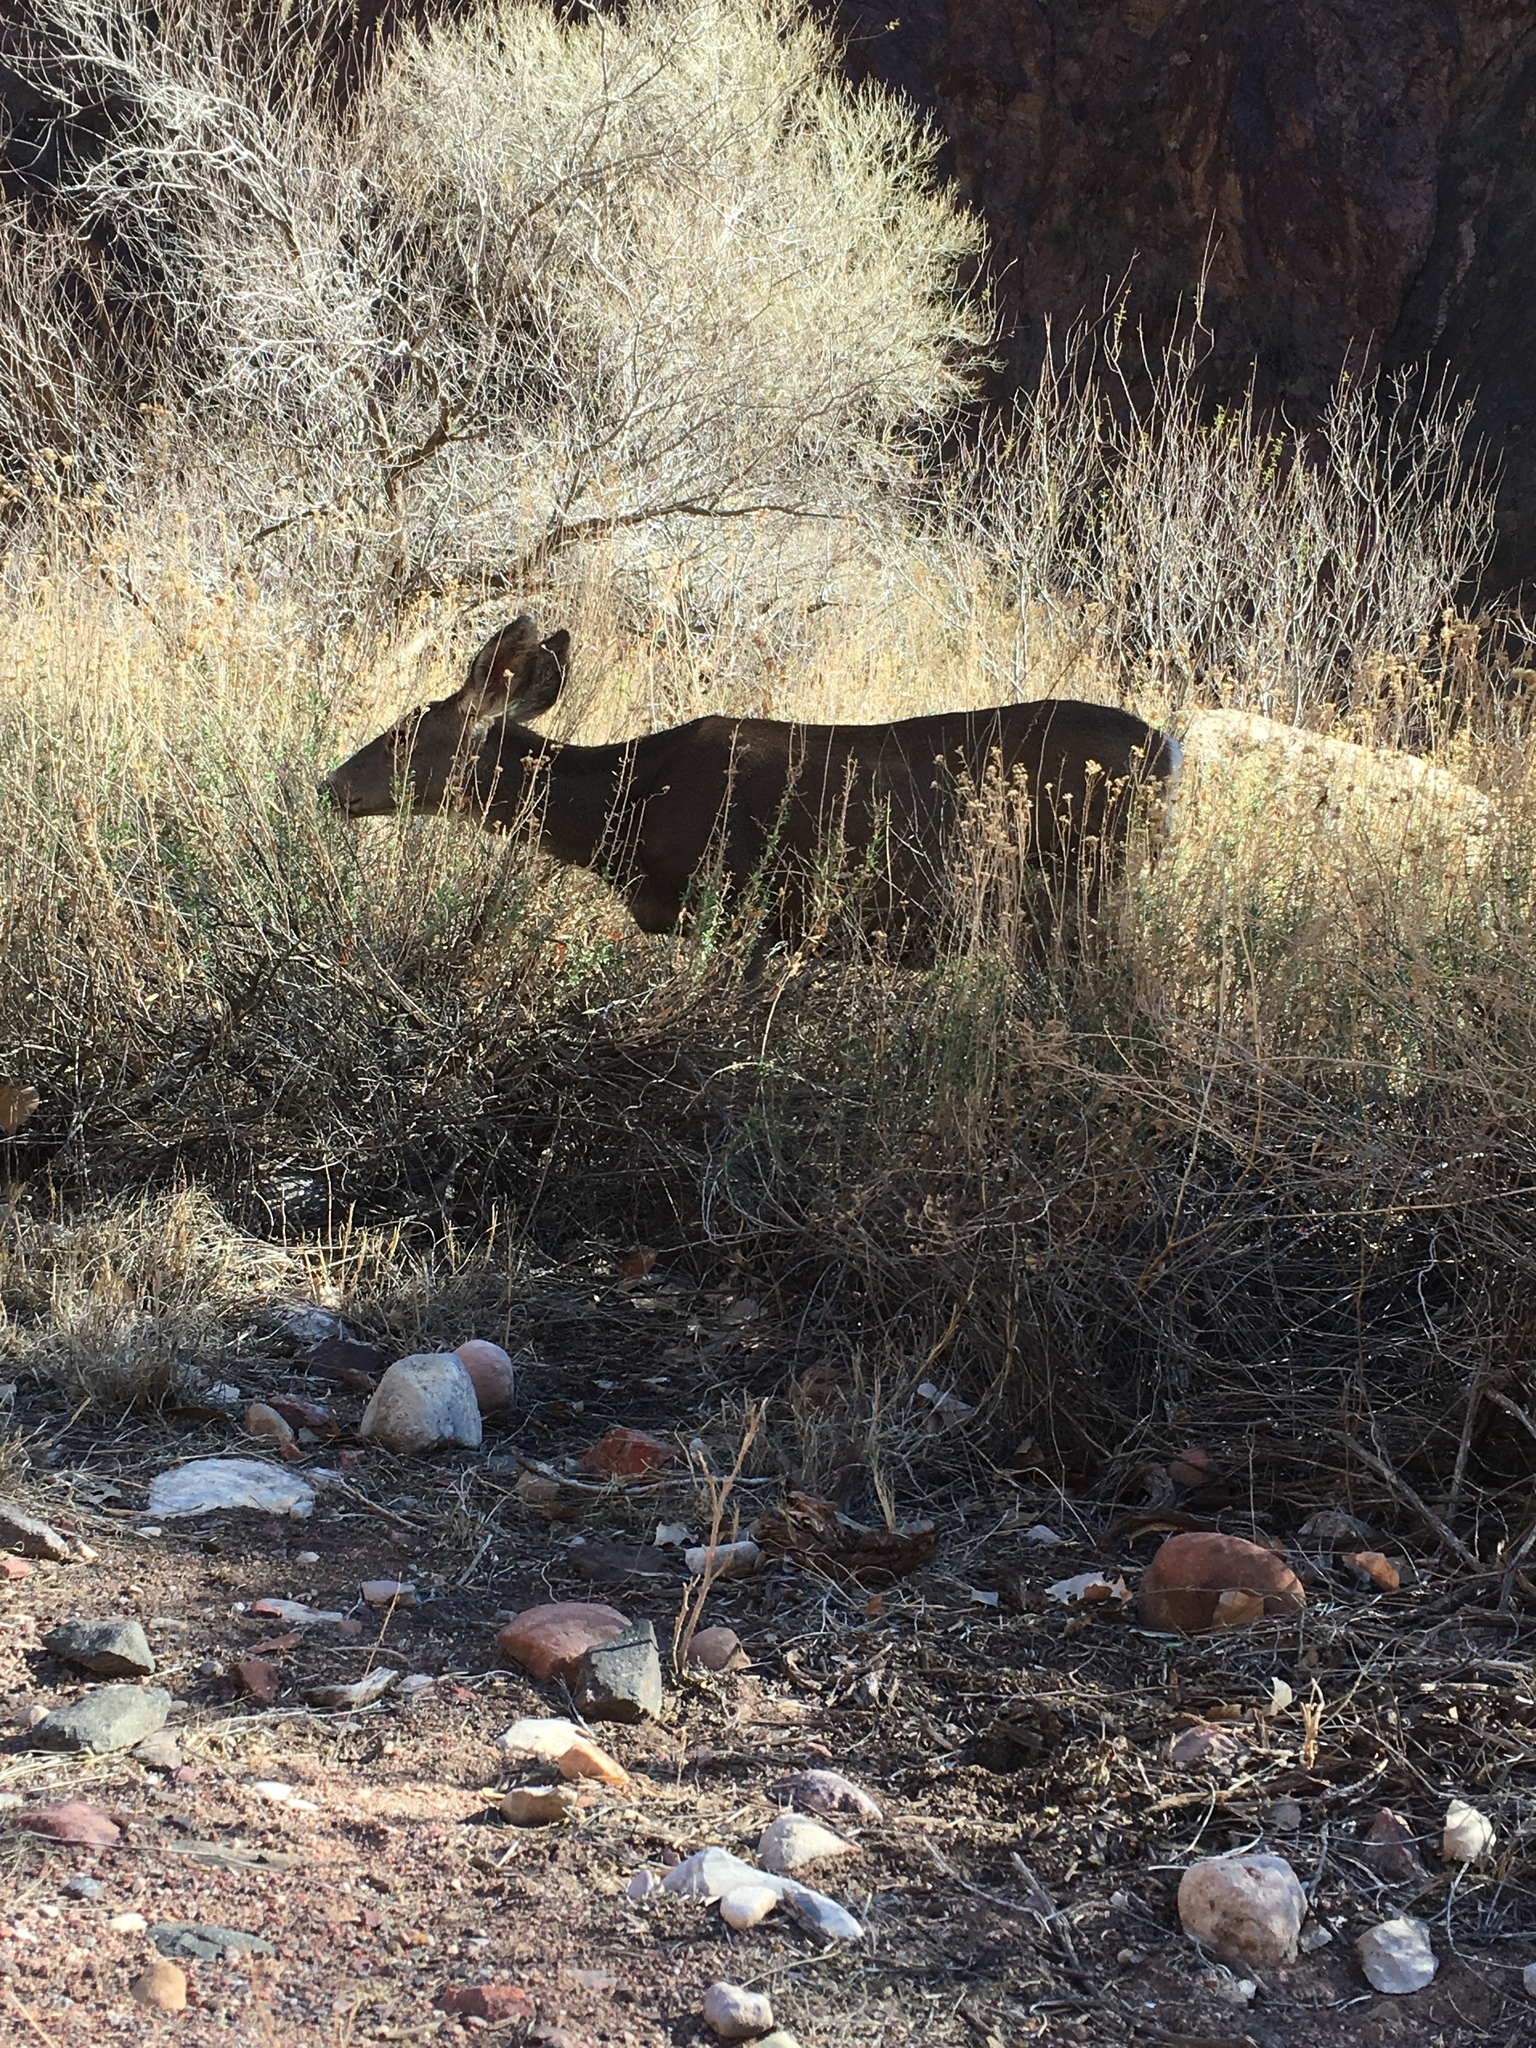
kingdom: Animalia
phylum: Chordata
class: Mammalia
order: Artiodactyla
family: Cervidae
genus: Odocoileus
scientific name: Odocoileus hemionus
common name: Mule deer
